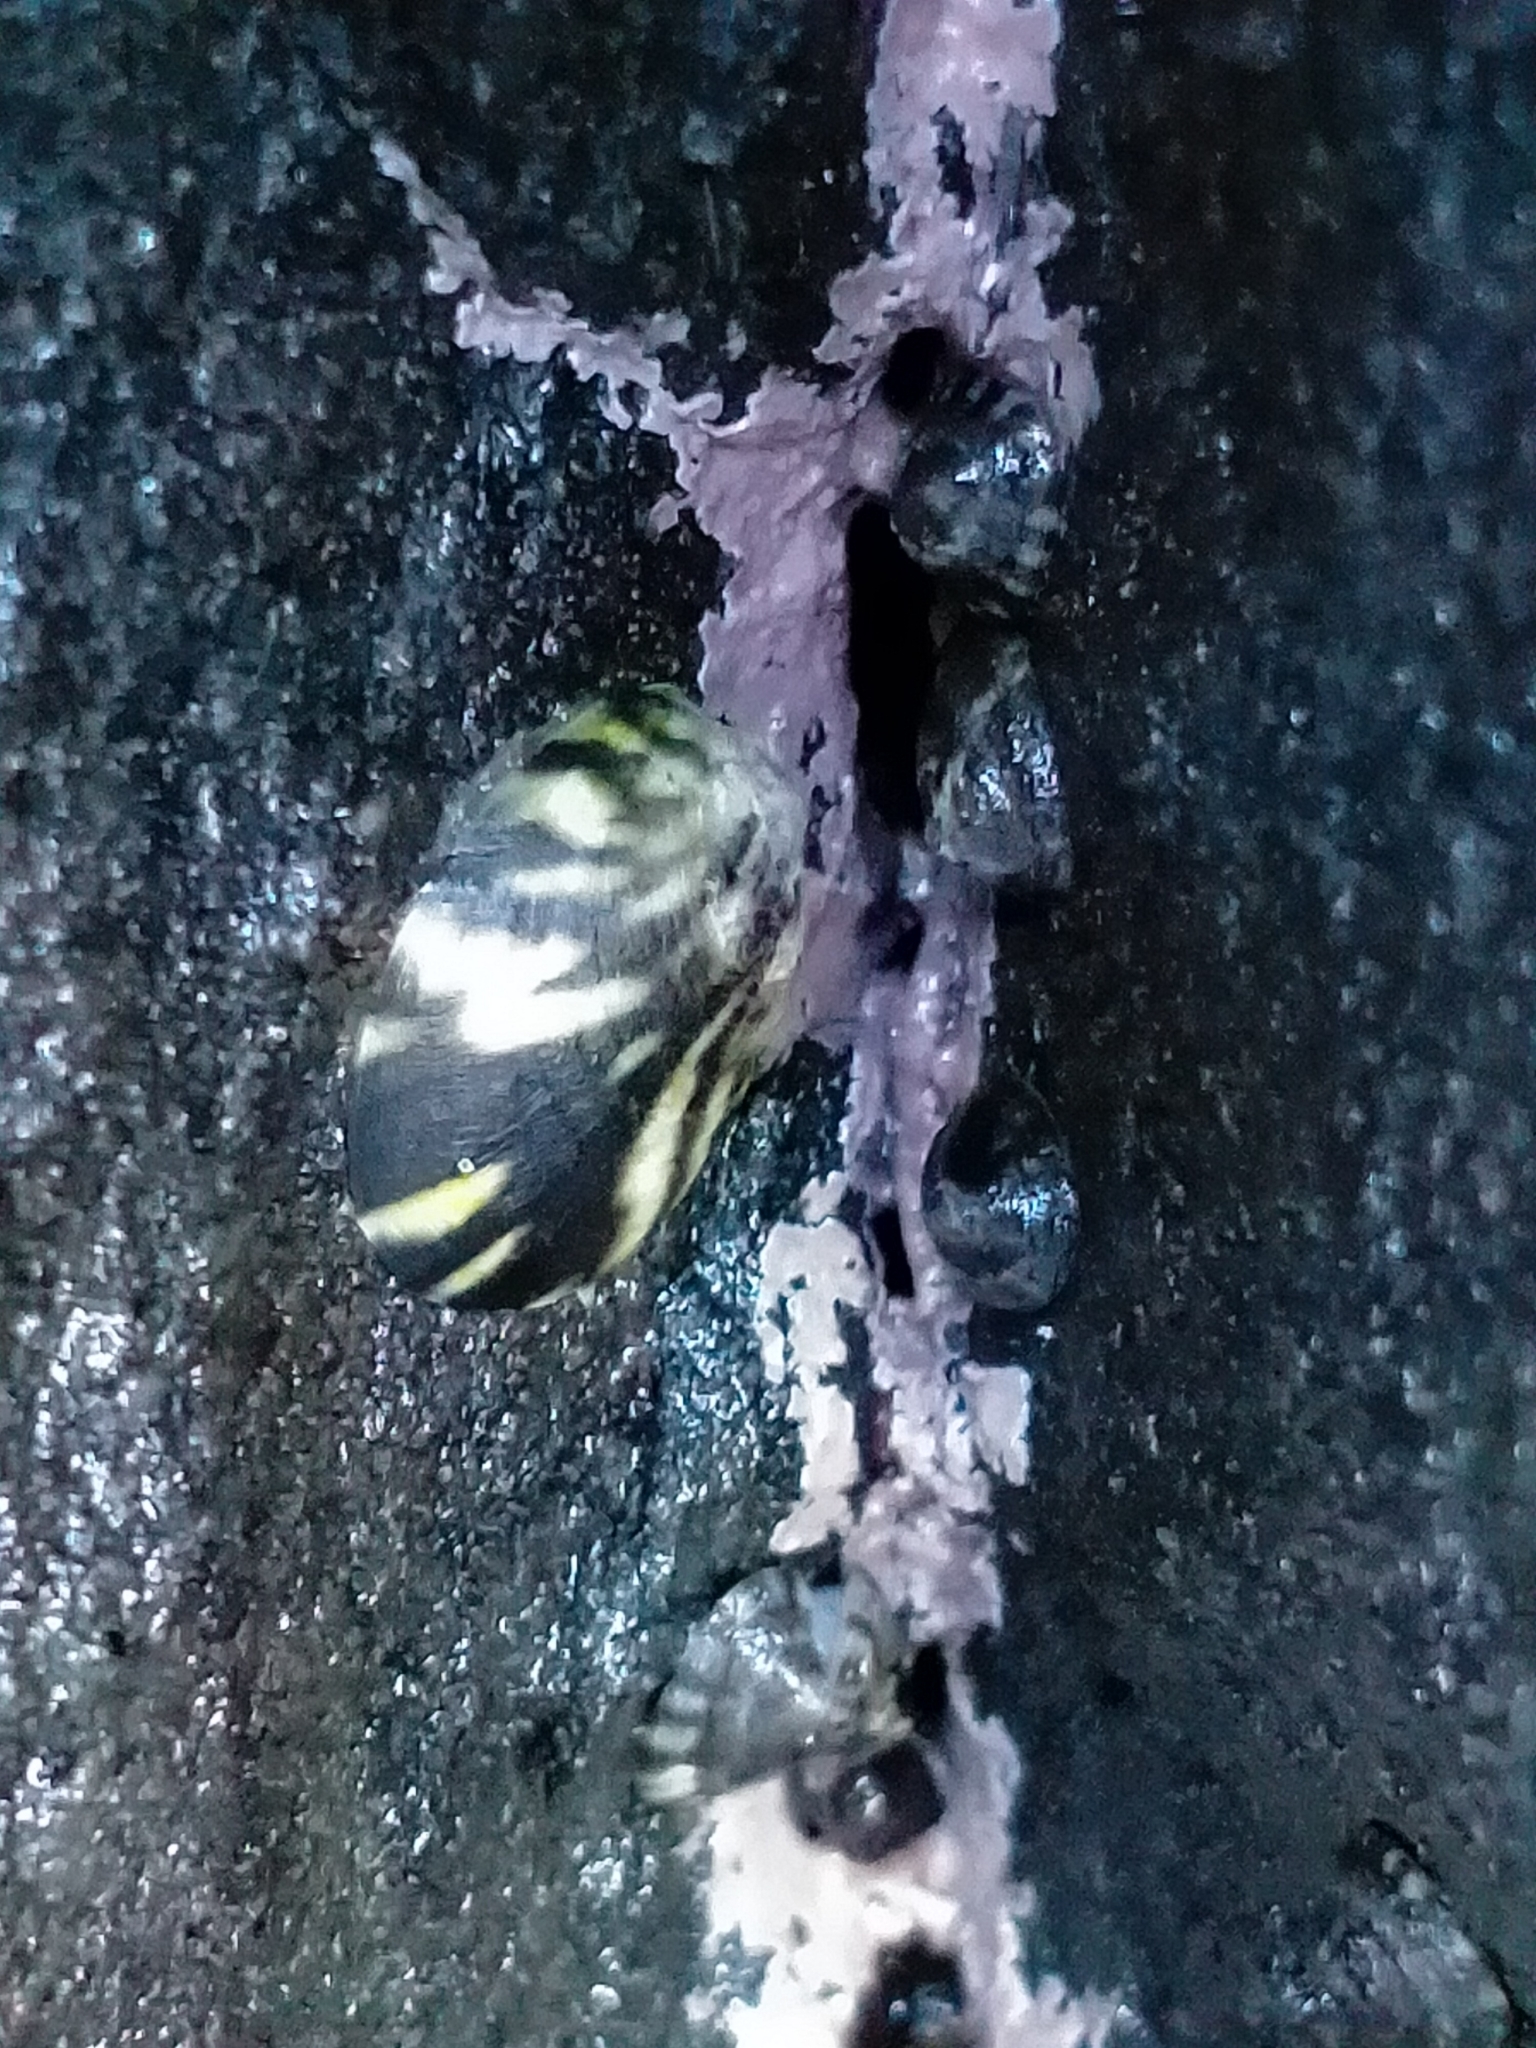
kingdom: Animalia
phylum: Mollusca
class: Gastropoda
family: Nacellidae
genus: Cellana
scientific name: Cellana strigilis
